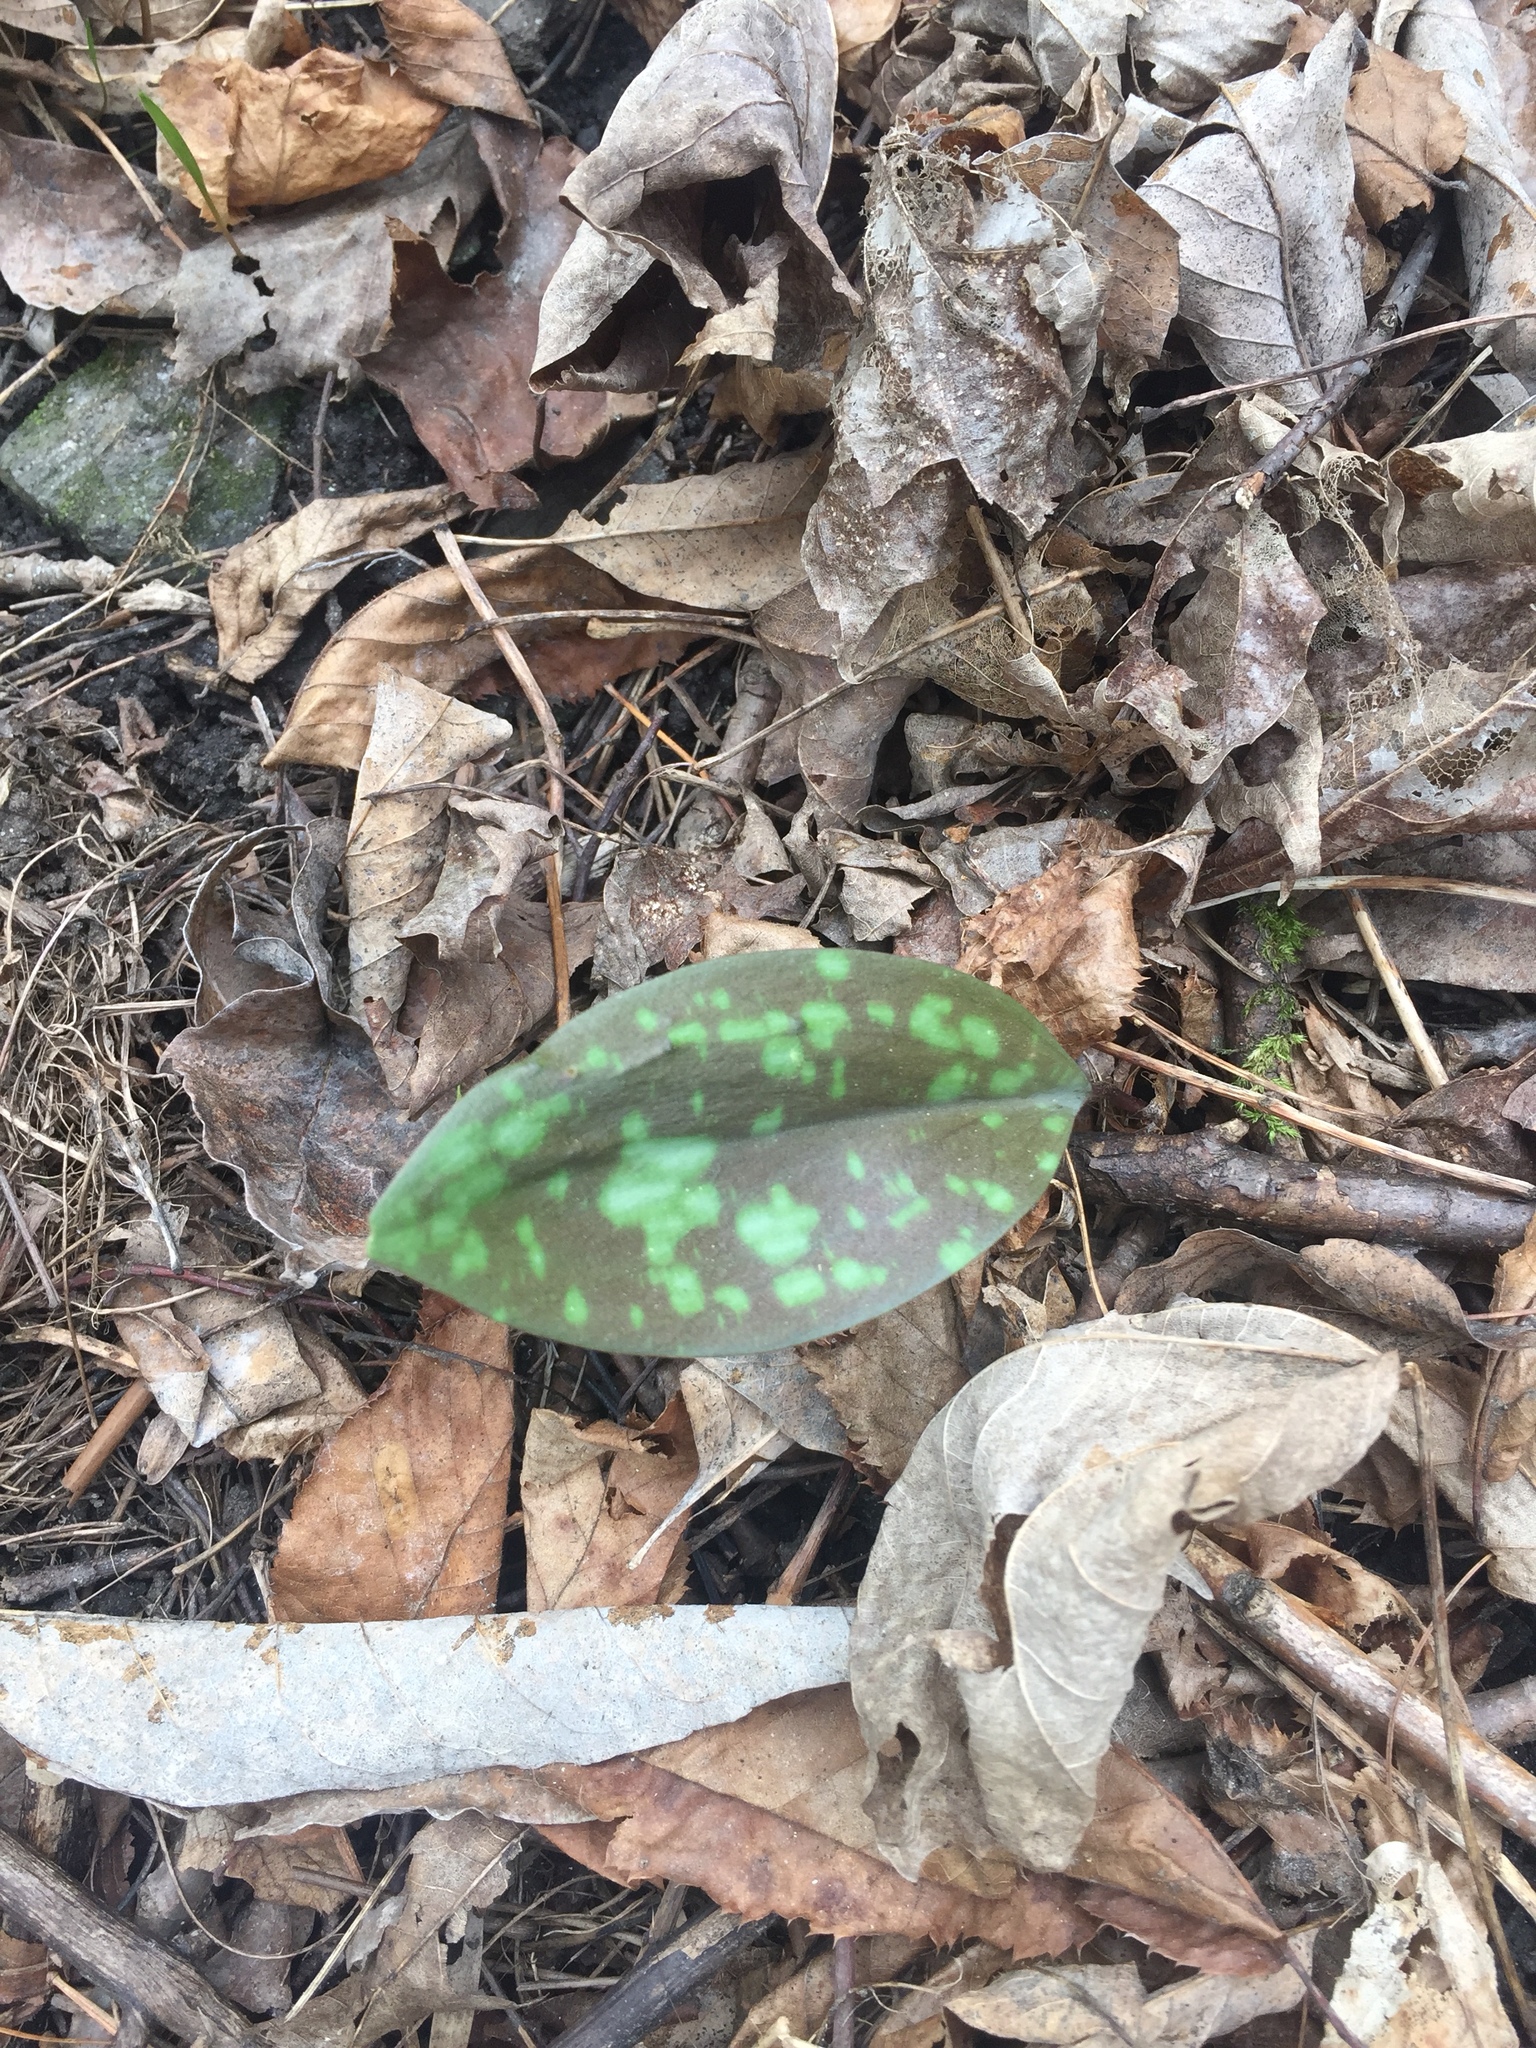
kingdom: Plantae
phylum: Tracheophyta
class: Liliopsida
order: Liliales
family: Liliaceae
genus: Erythronium
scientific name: Erythronium americanum
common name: Yellow adder's-tongue
